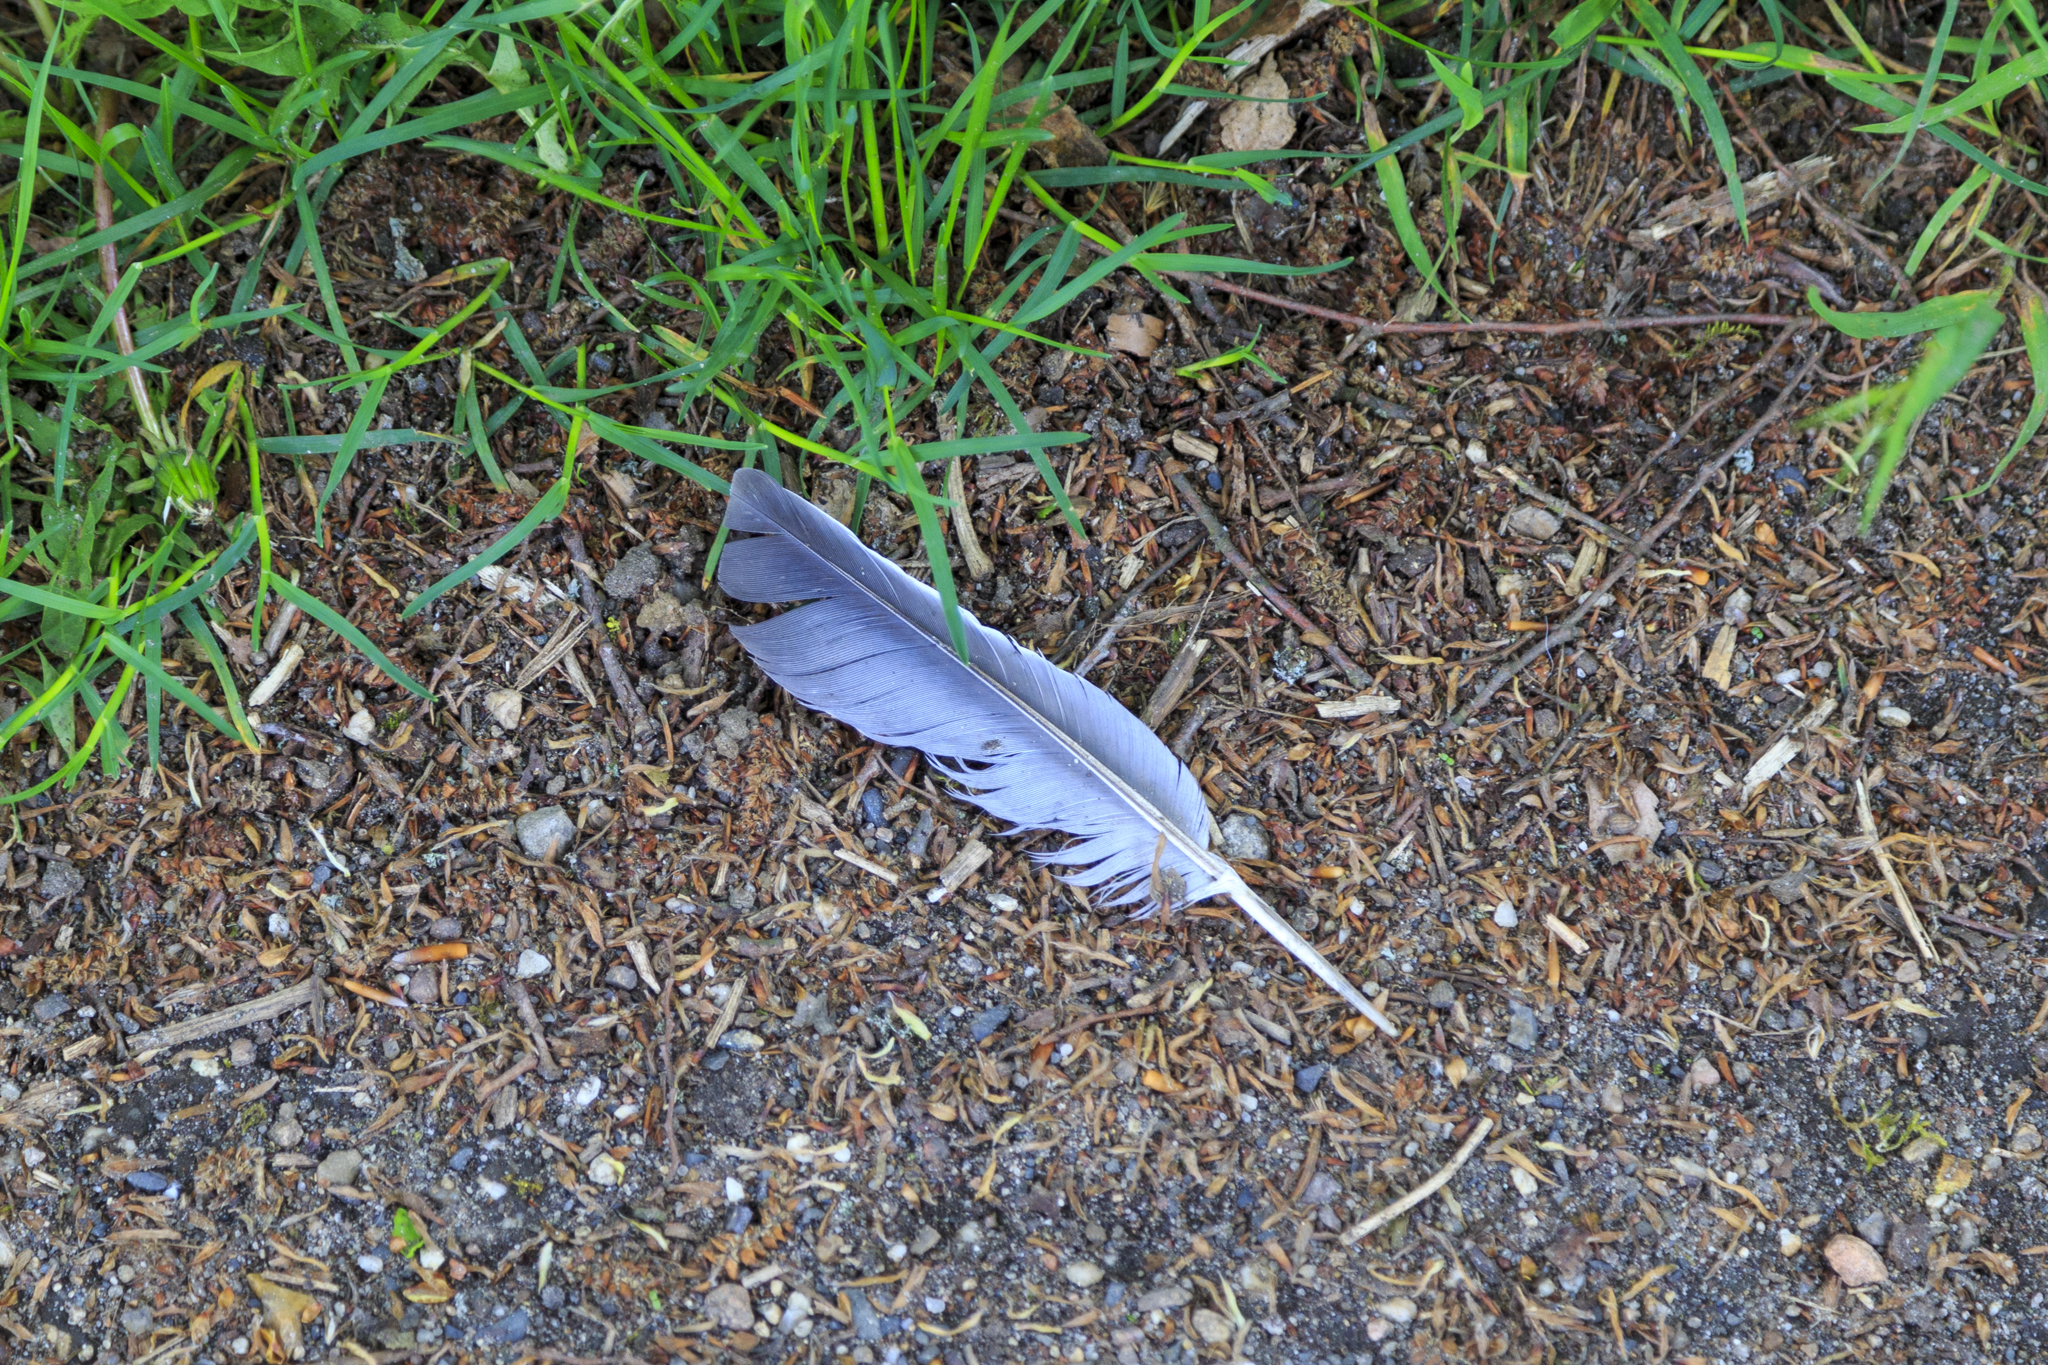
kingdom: Animalia
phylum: Chordata
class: Aves
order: Columbiformes
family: Columbidae
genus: Columba
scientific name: Columba palumbus
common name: Common wood pigeon
